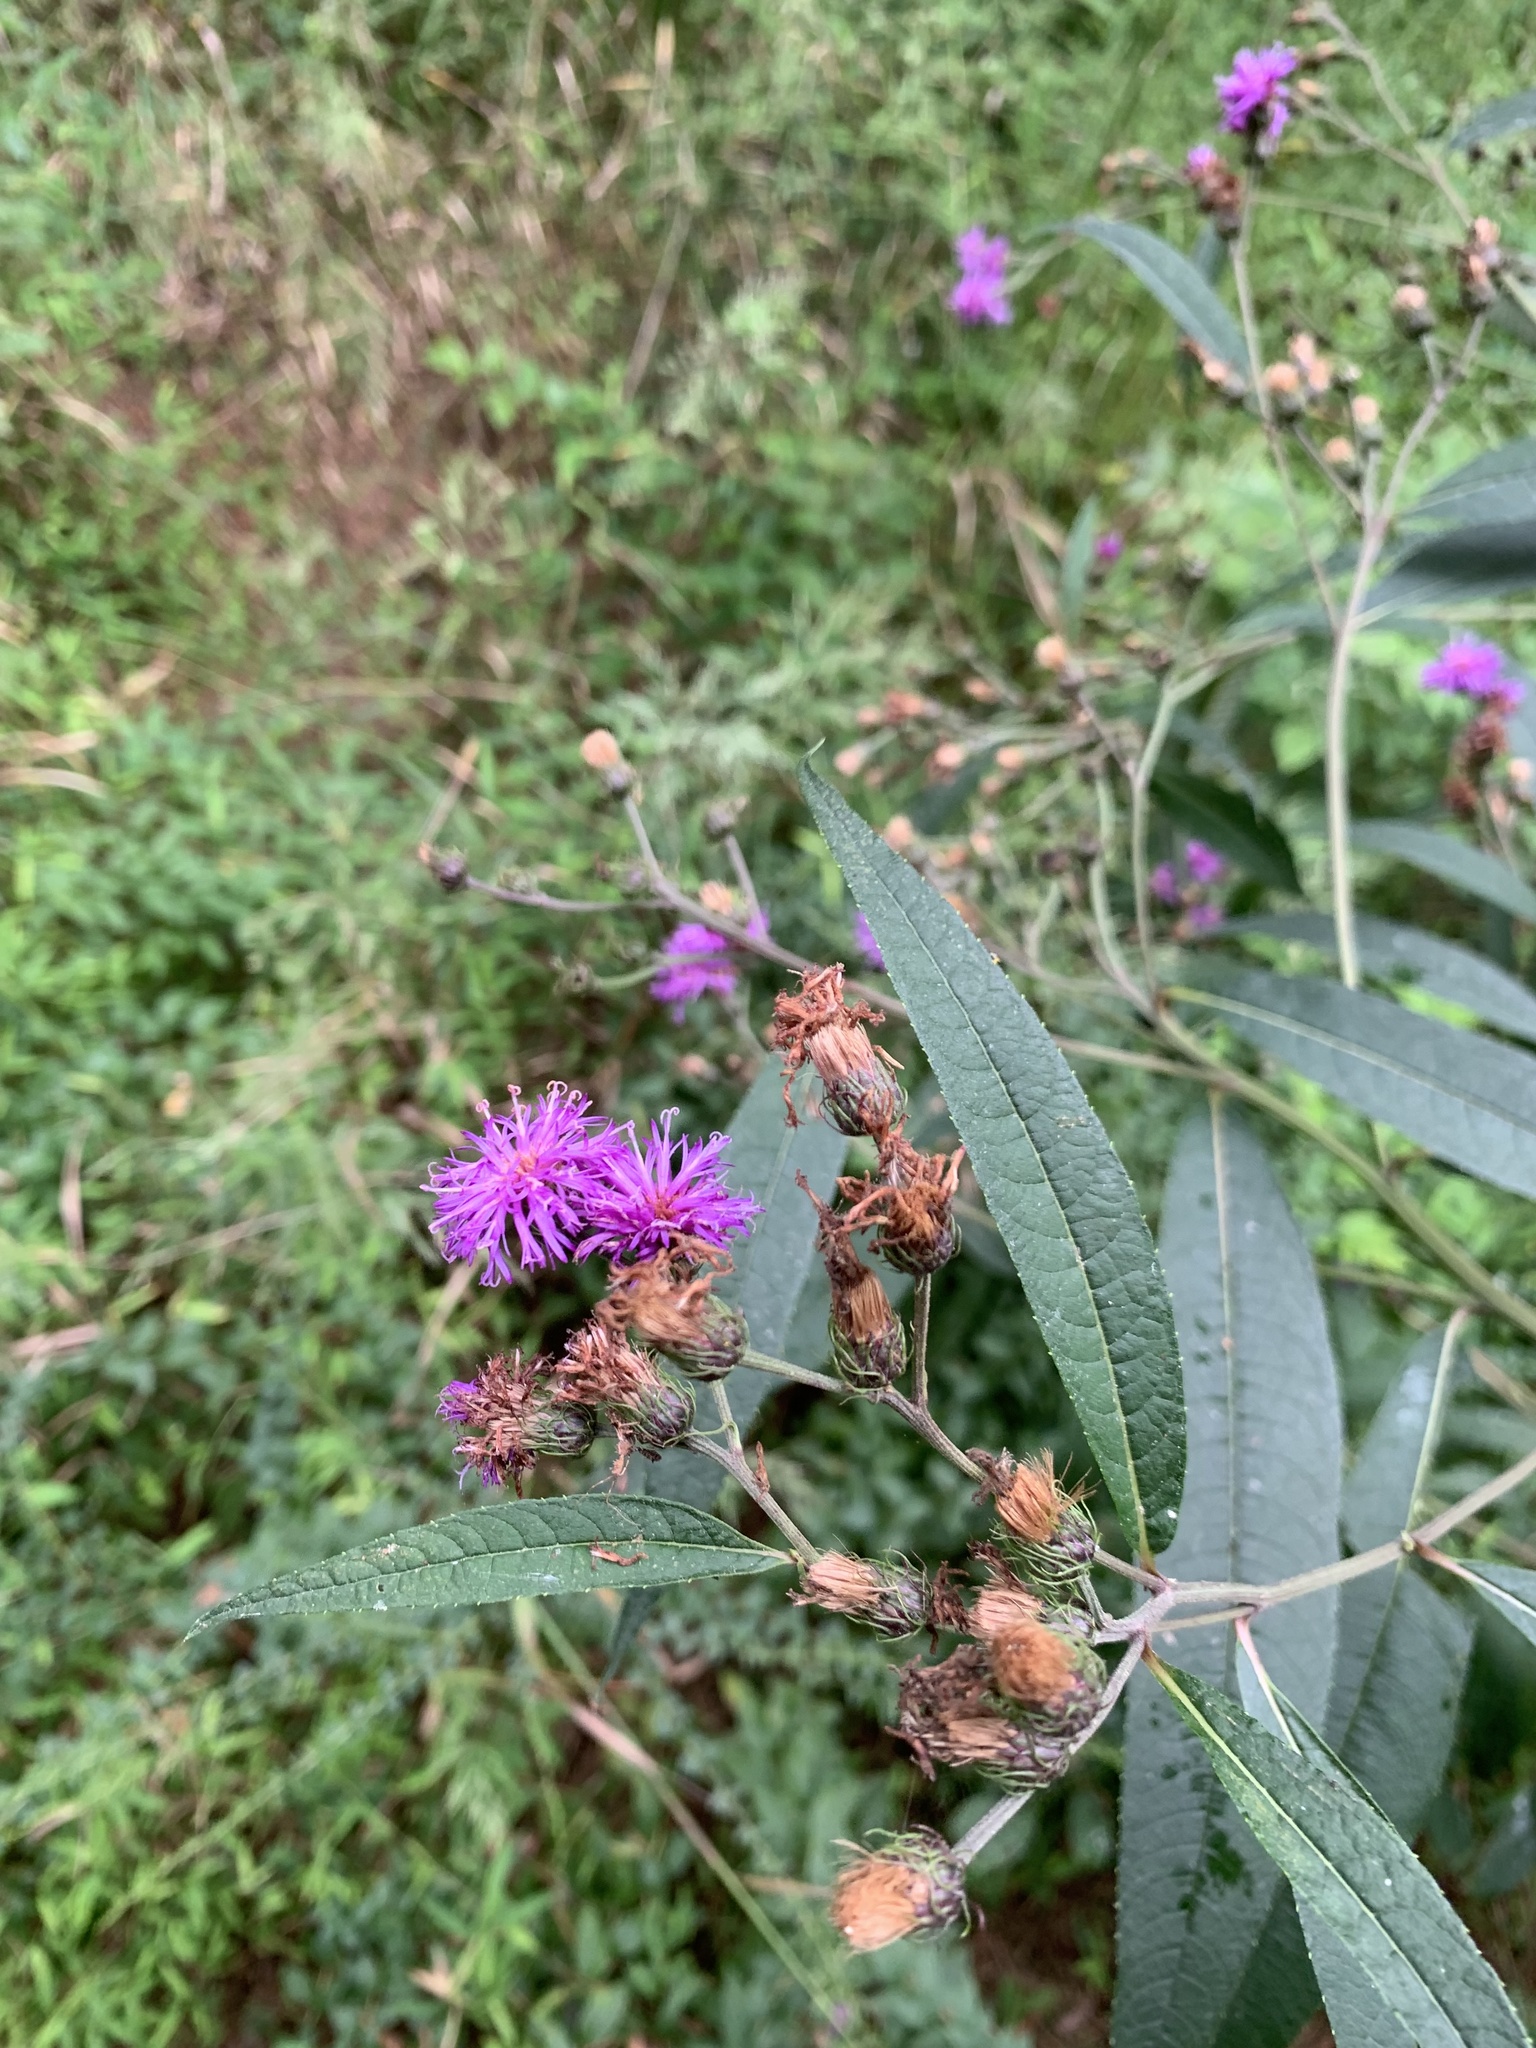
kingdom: Plantae
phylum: Tracheophyta
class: Magnoliopsida
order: Asterales
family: Asteraceae
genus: Vernonia
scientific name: Vernonia noveboracensis
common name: New york ironweed
